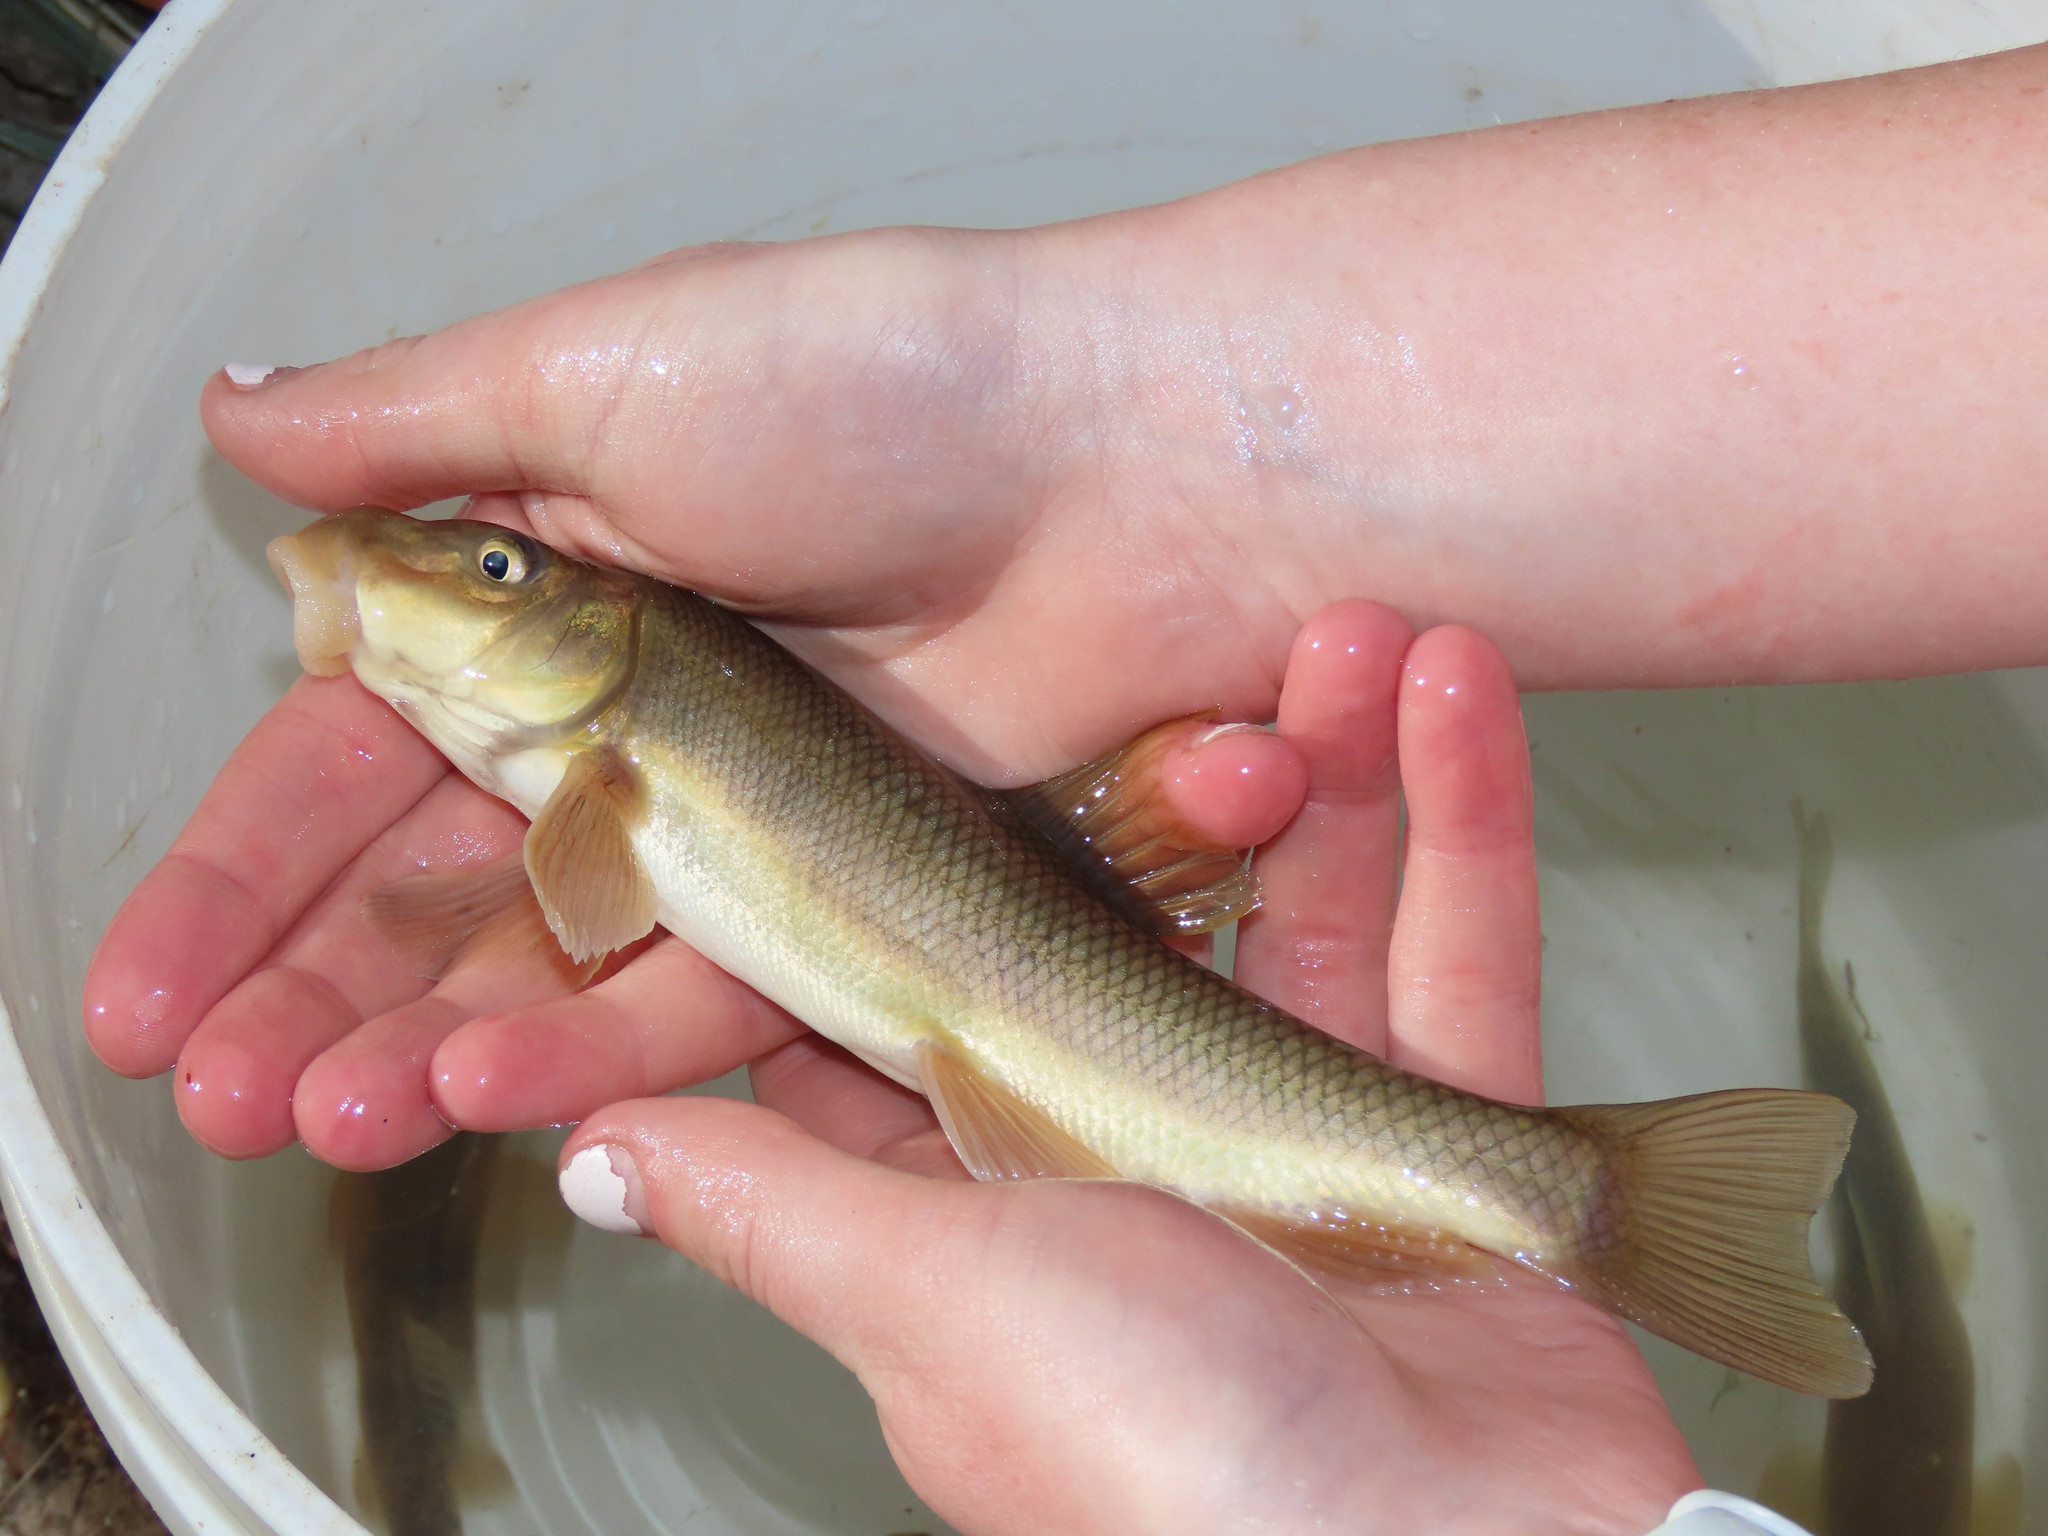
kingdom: Animalia
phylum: Chordata
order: Cypriniformes
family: Catostomidae
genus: Catostomus
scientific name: Catostomus insignis
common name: Sonora sucker
